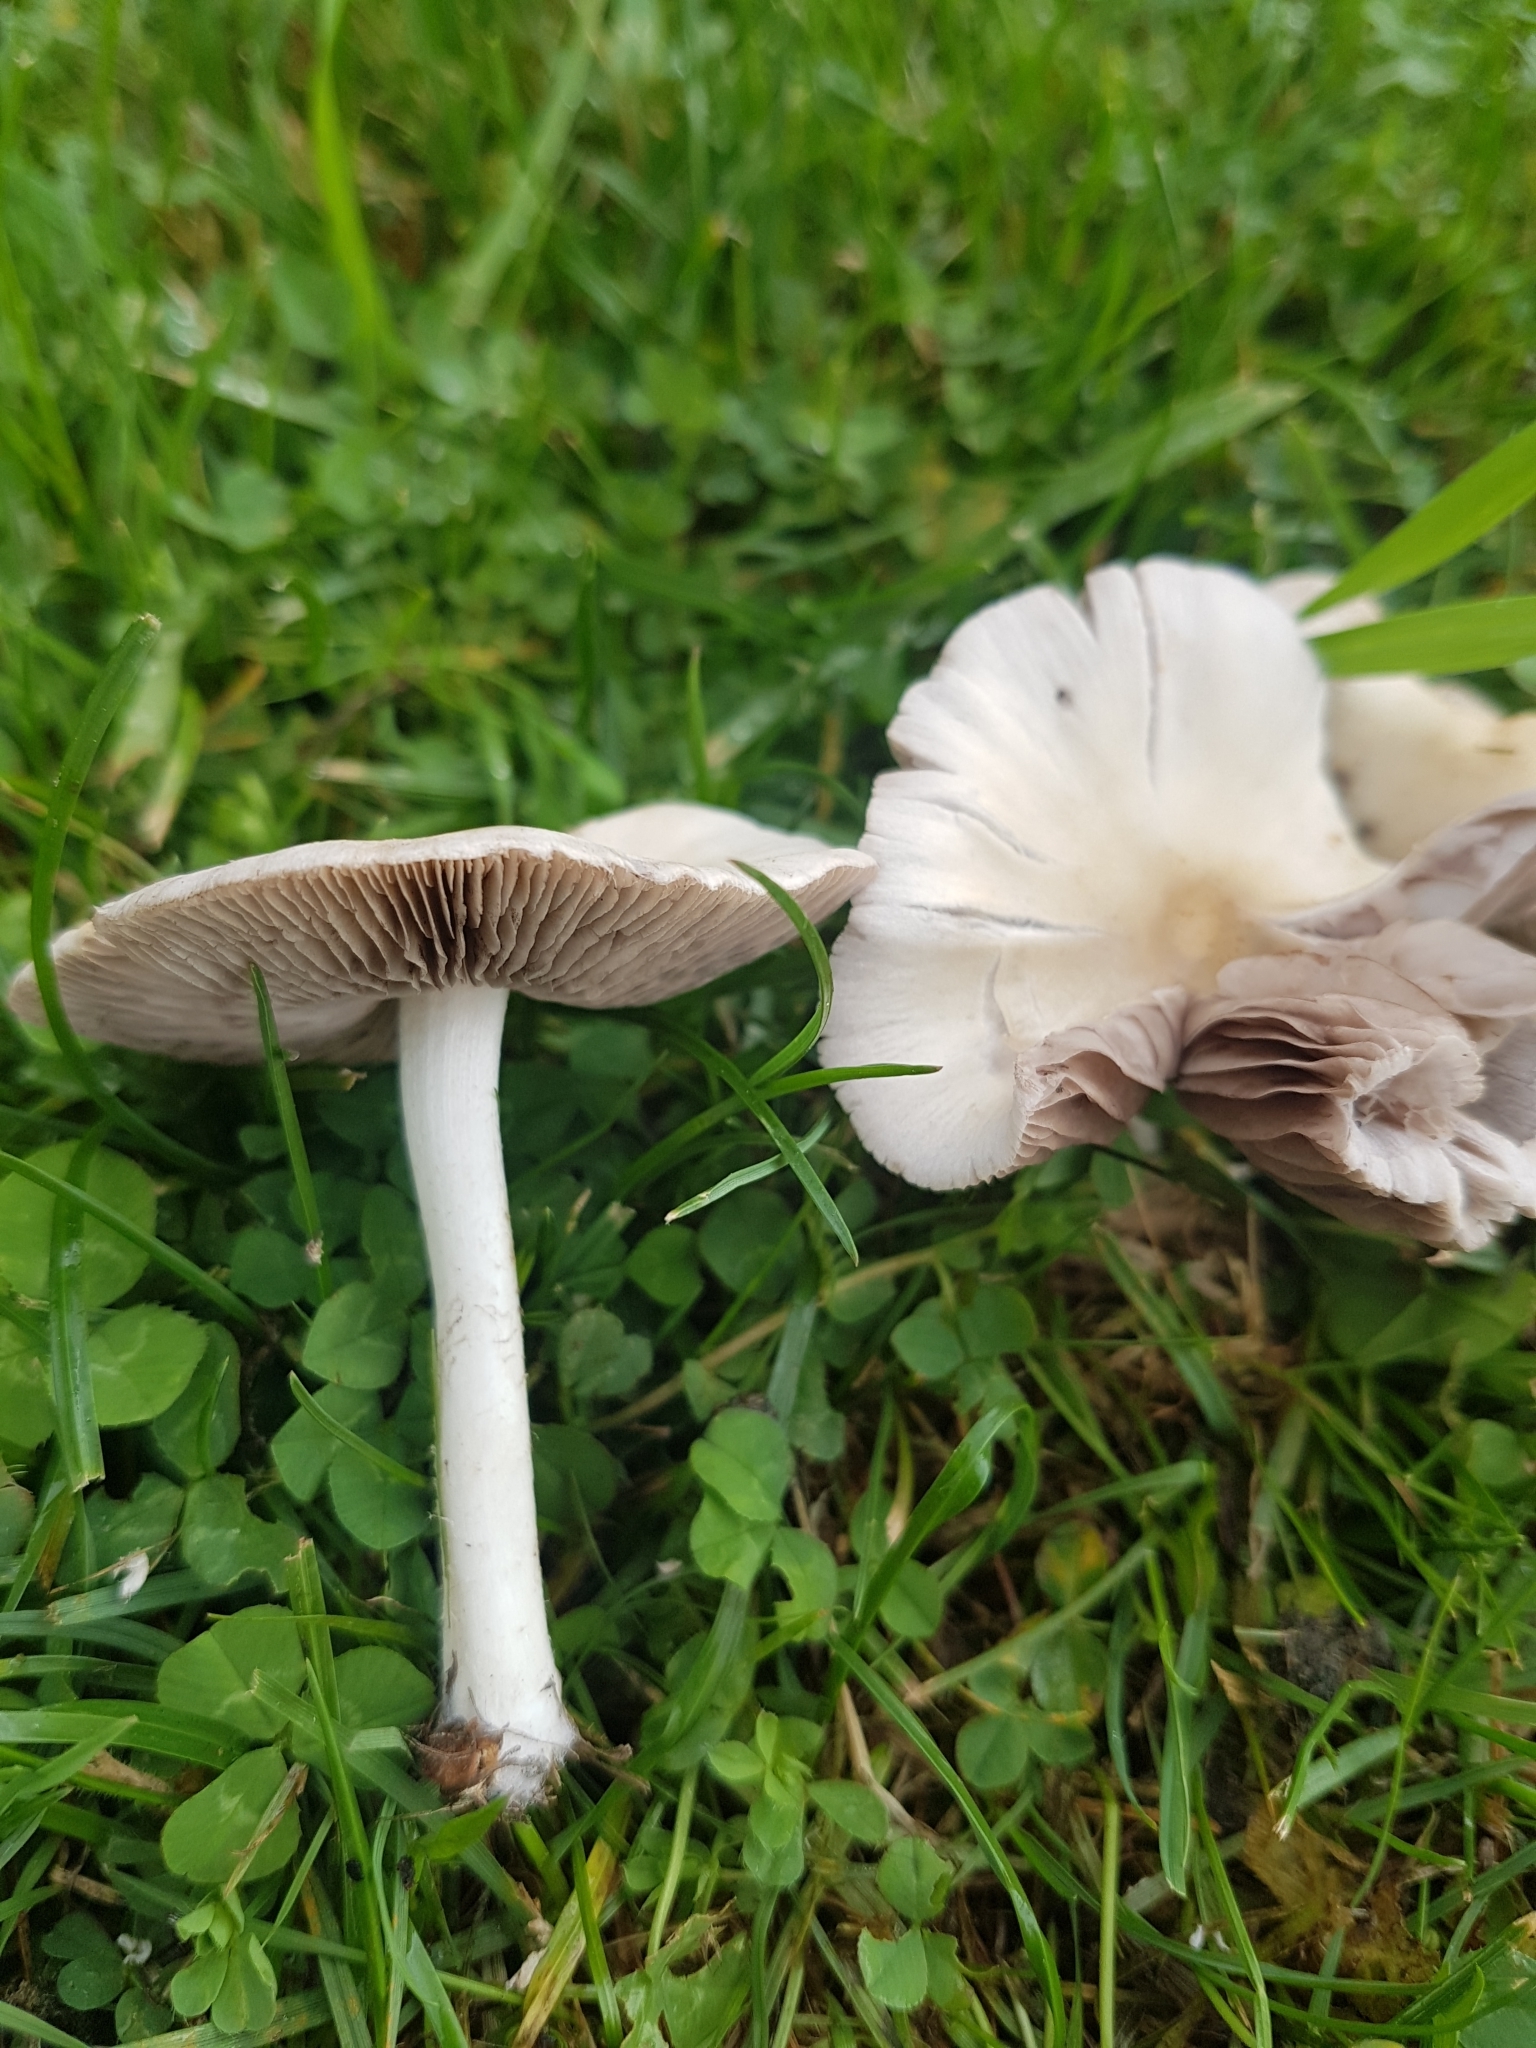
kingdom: Fungi
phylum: Basidiomycota
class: Agaricomycetes
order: Agaricales
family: Psathyrellaceae
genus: Candolleomyces
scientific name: Candolleomyces candolleanus
